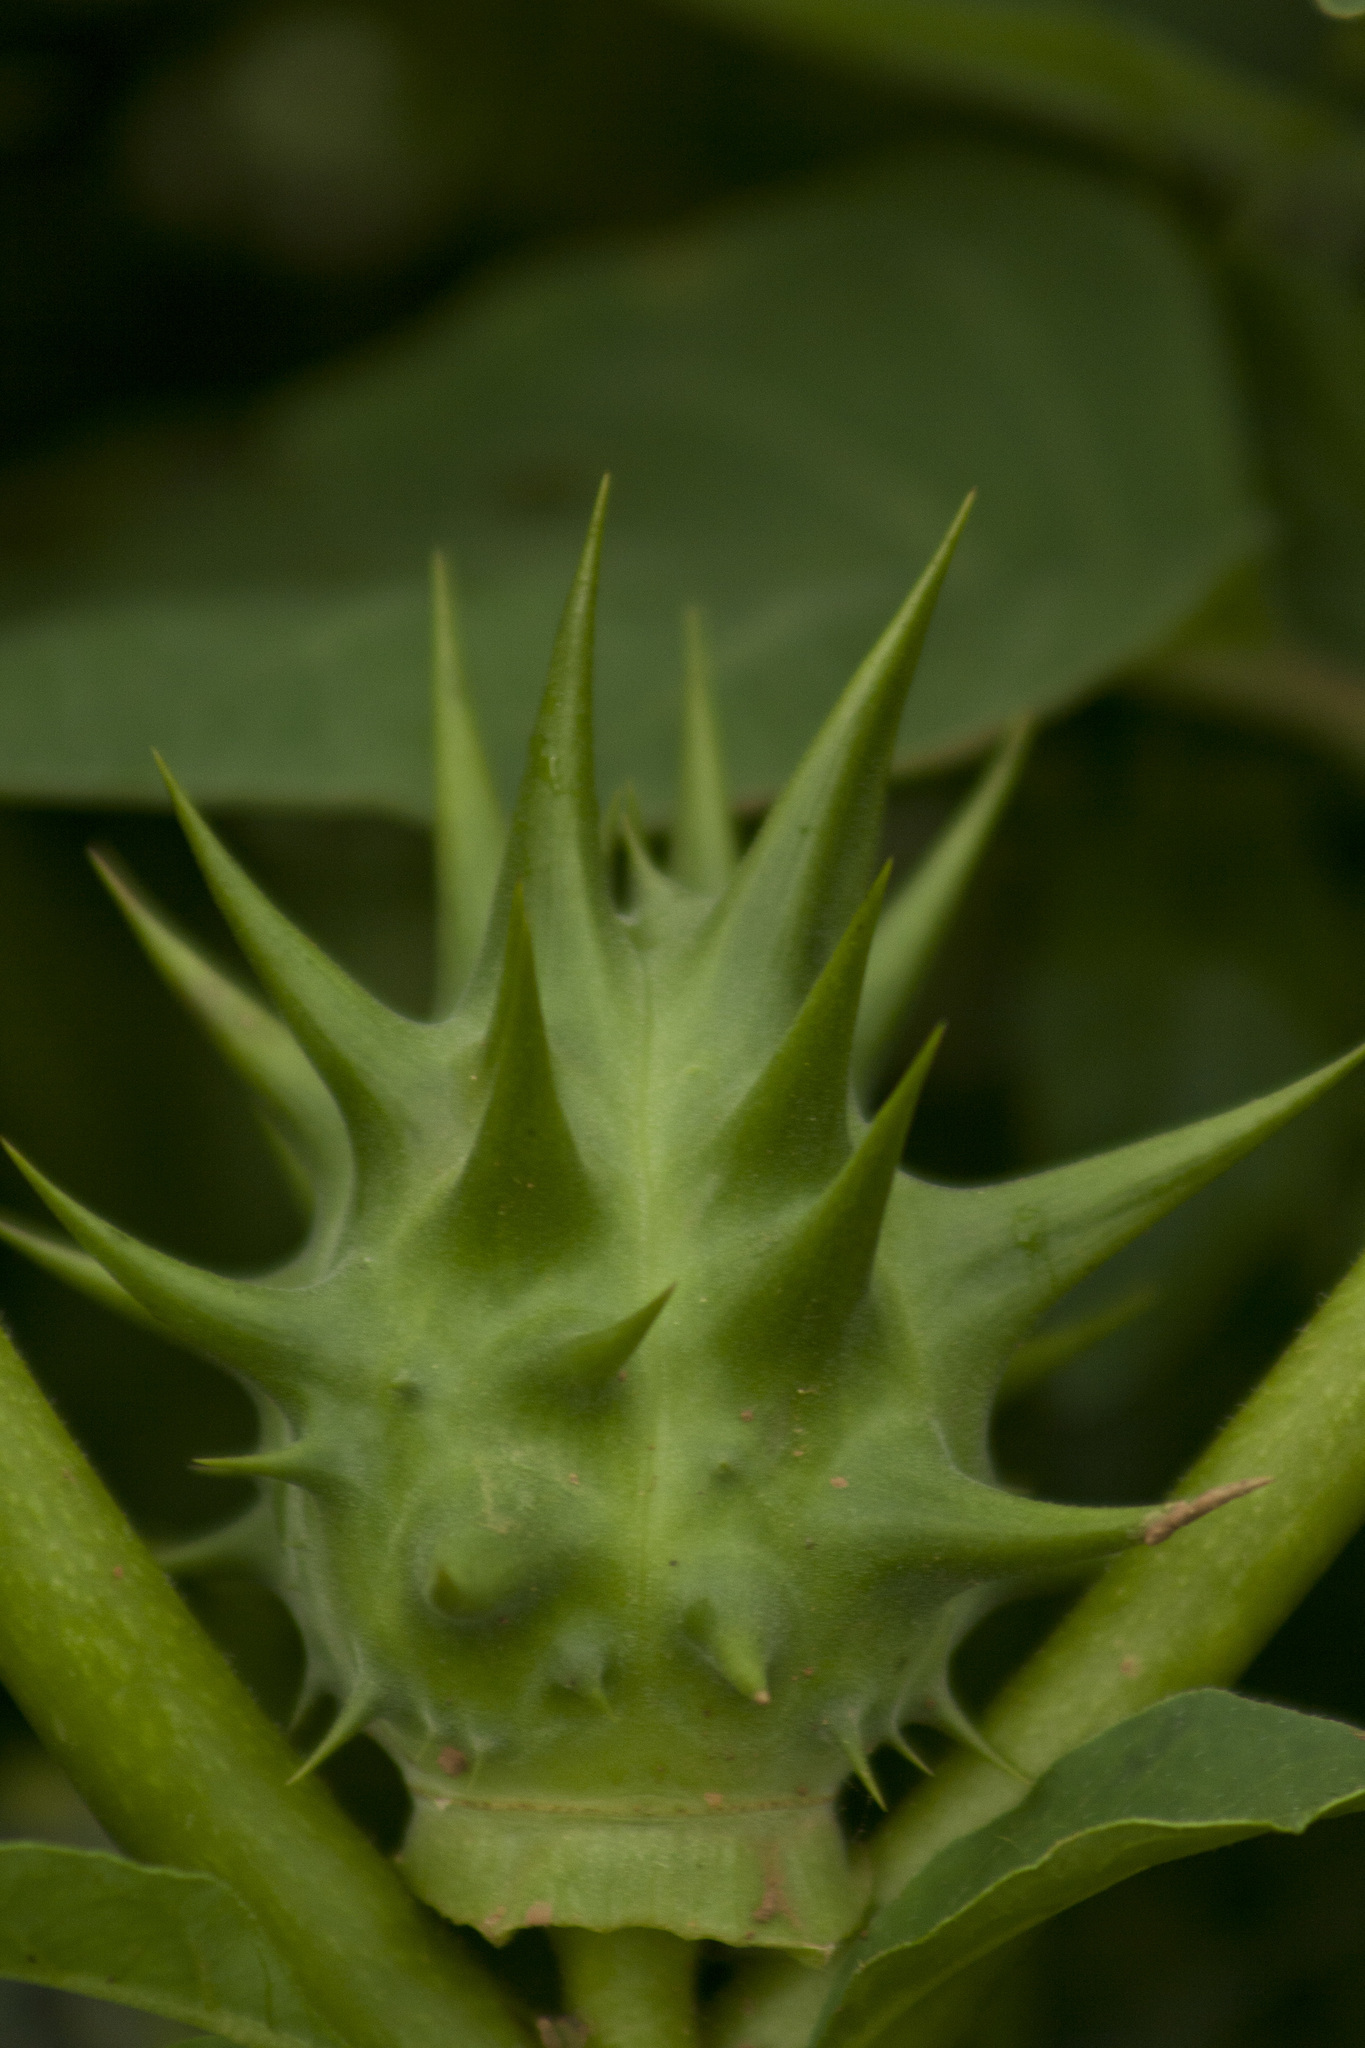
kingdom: Plantae
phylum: Tracheophyta
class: Magnoliopsida
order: Solanales
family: Solanaceae
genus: Datura
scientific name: Datura ferox
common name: Angel's-trumpets
